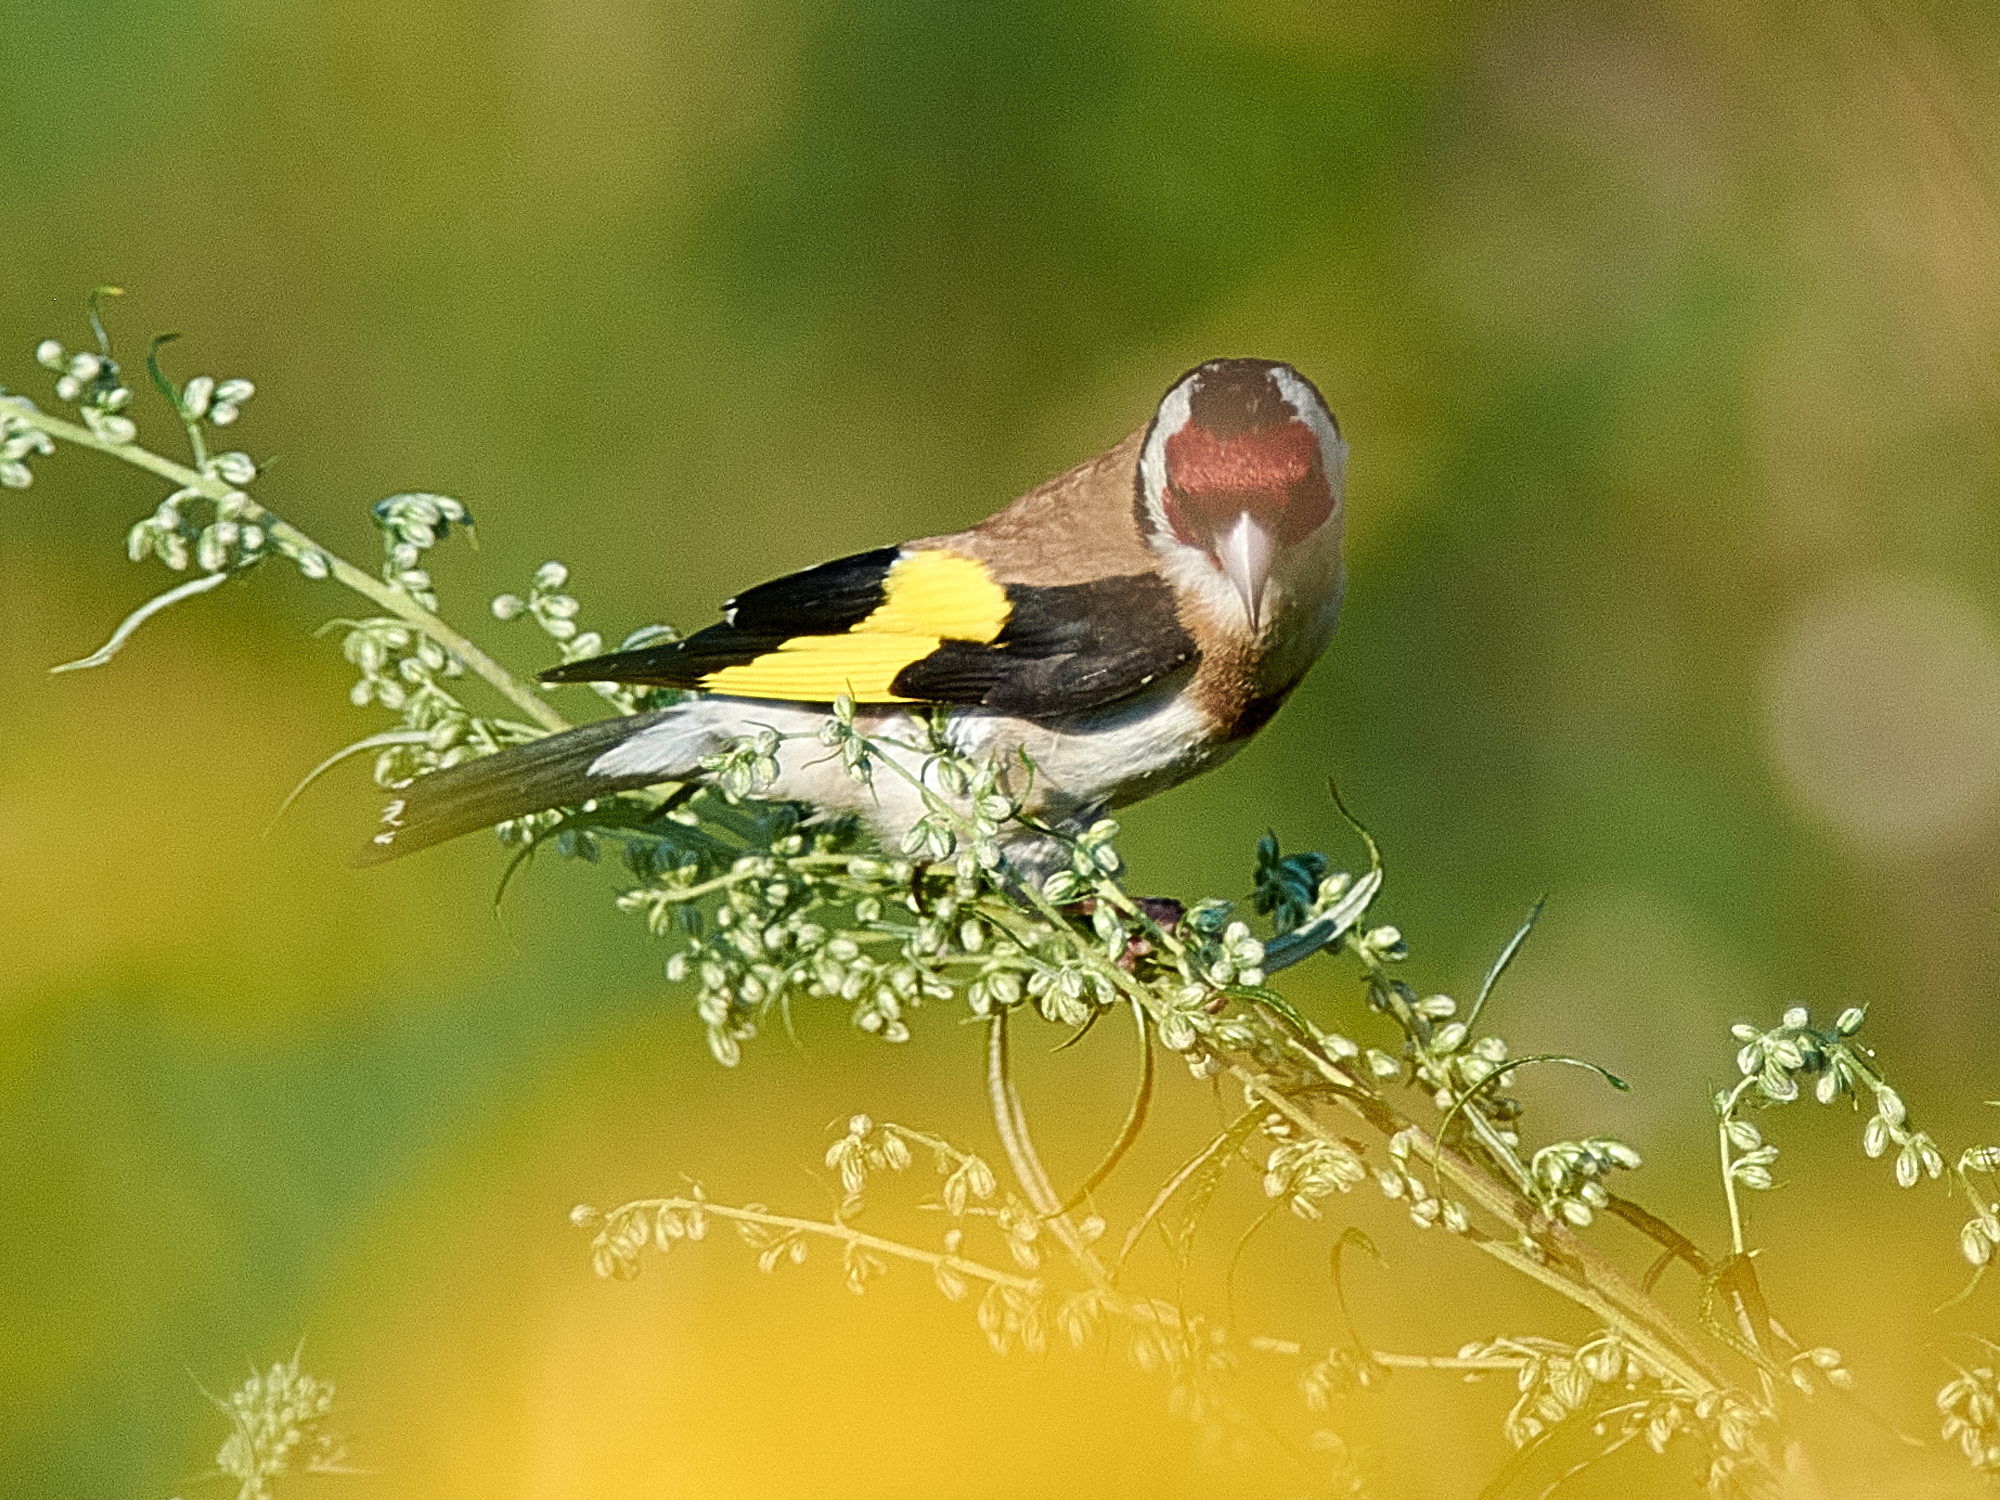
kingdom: Animalia
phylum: Chordata
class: Aves
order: Passeriformes
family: Fringillidae
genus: Carduelis
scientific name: Carduelis carduelis
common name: European goldfinch
